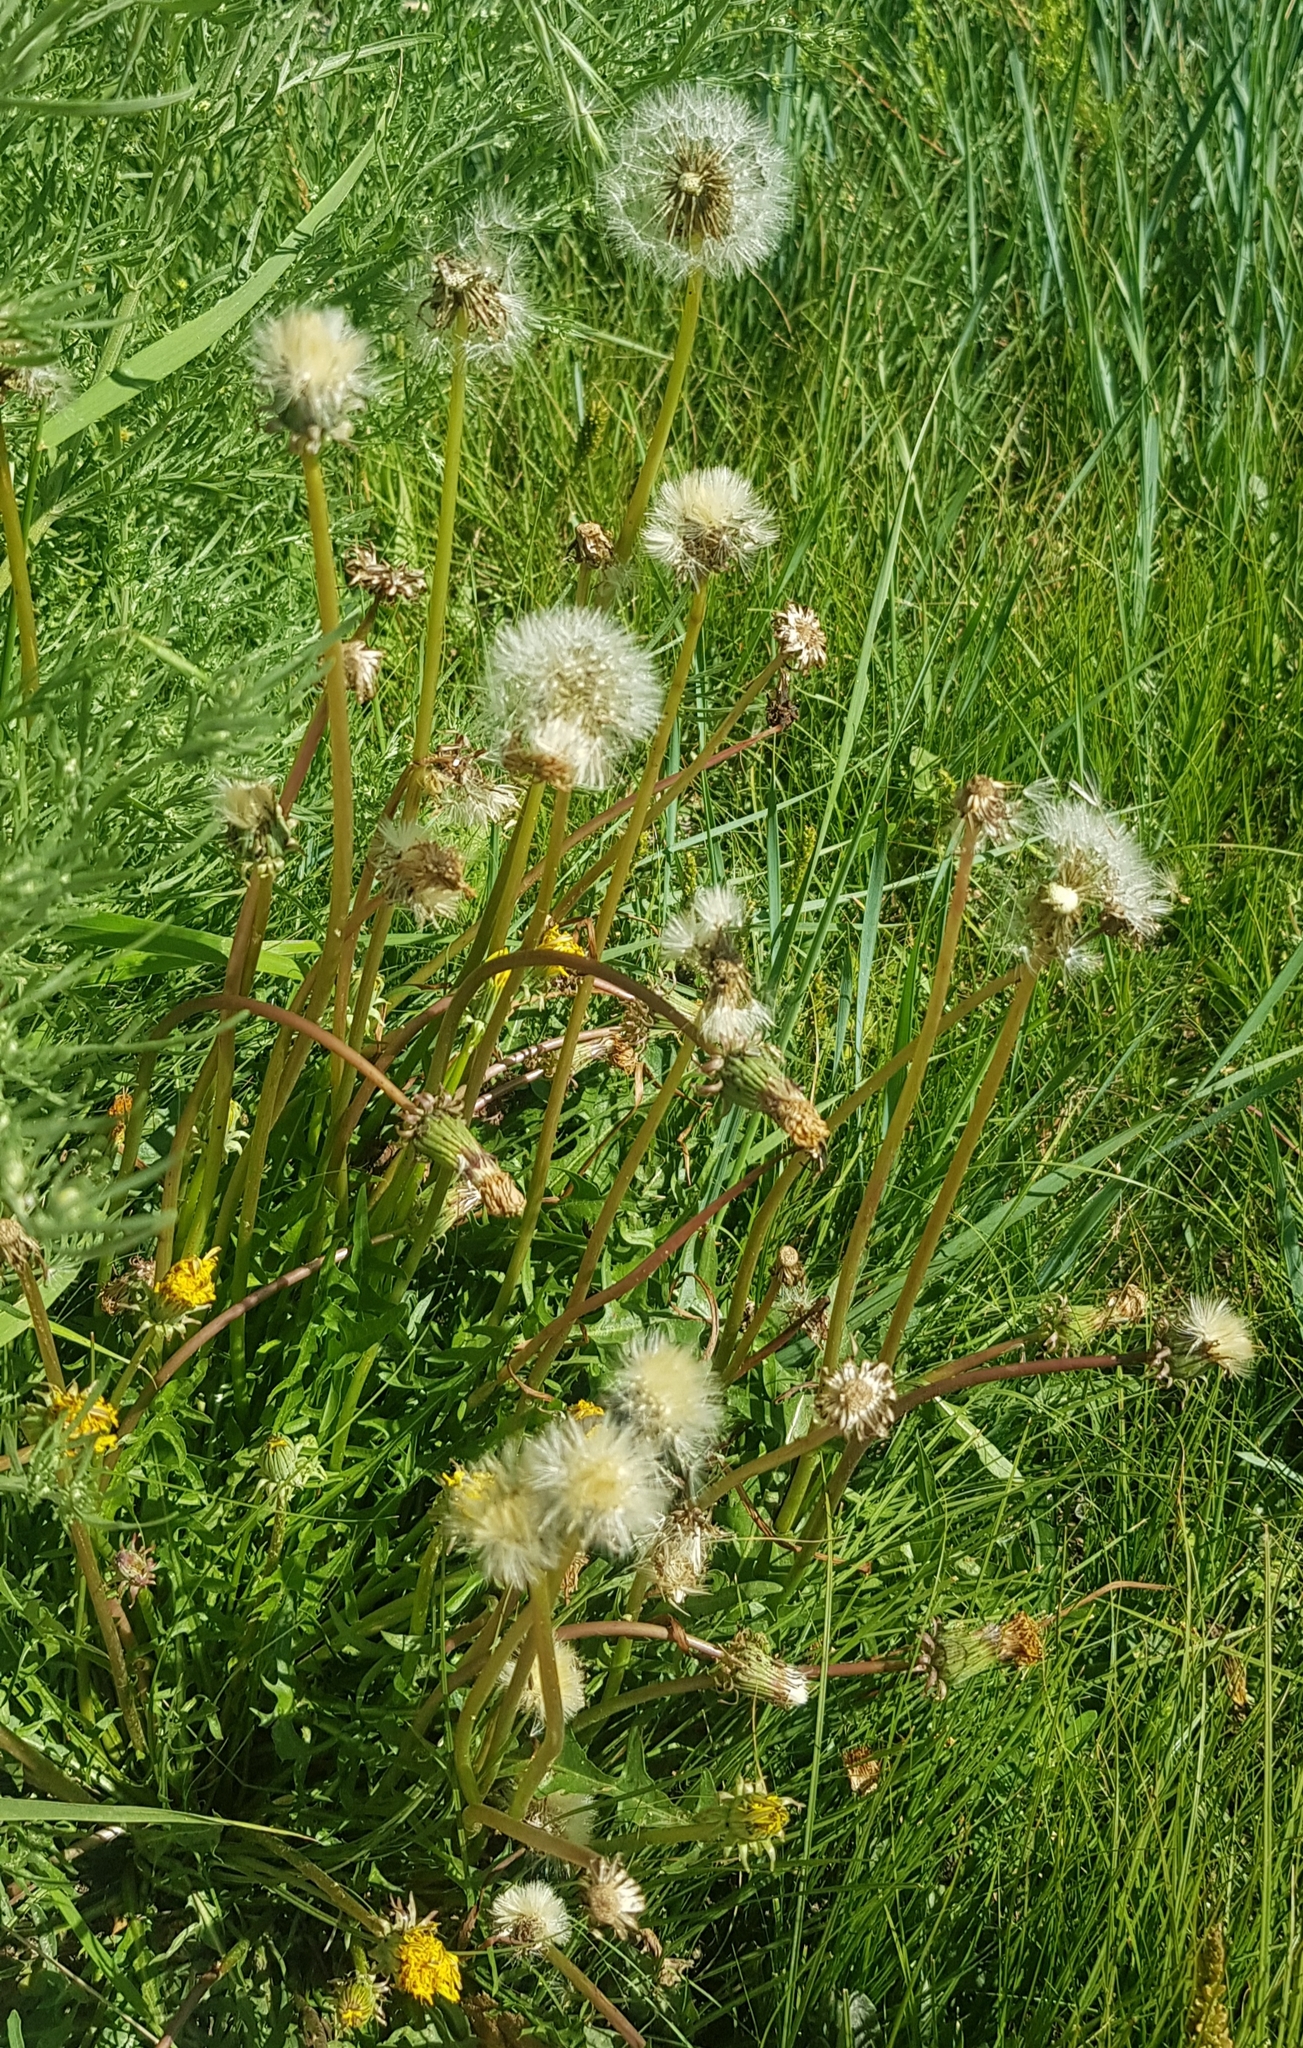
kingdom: Plantae
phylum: Tracheophyta
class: Magnoliopsida
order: Asterales
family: Asteraceae
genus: Taraxacum
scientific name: Taraxacum officinale
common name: Common dandelion
